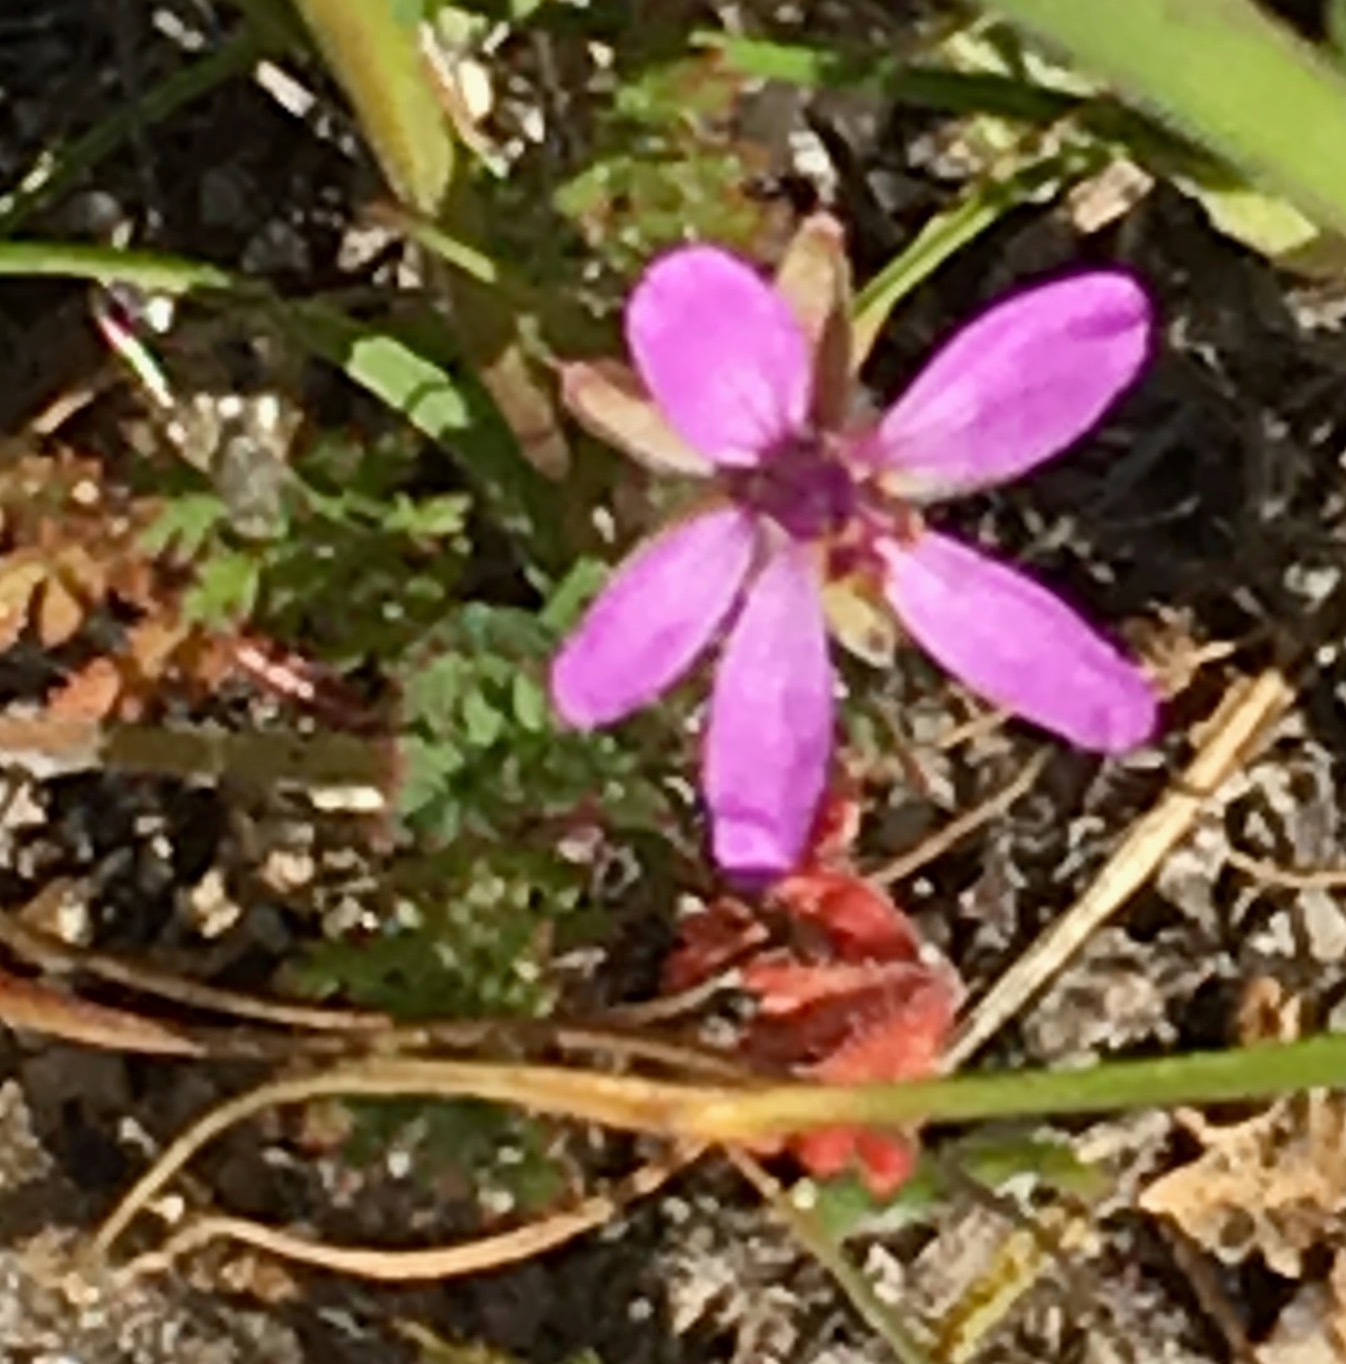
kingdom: Plantae
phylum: Tracheophyta
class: Magnoliopsida
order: Geraniales
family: Geraniaceae
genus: Erodium
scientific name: Erodium cicutarium
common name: Common stork's-bill
